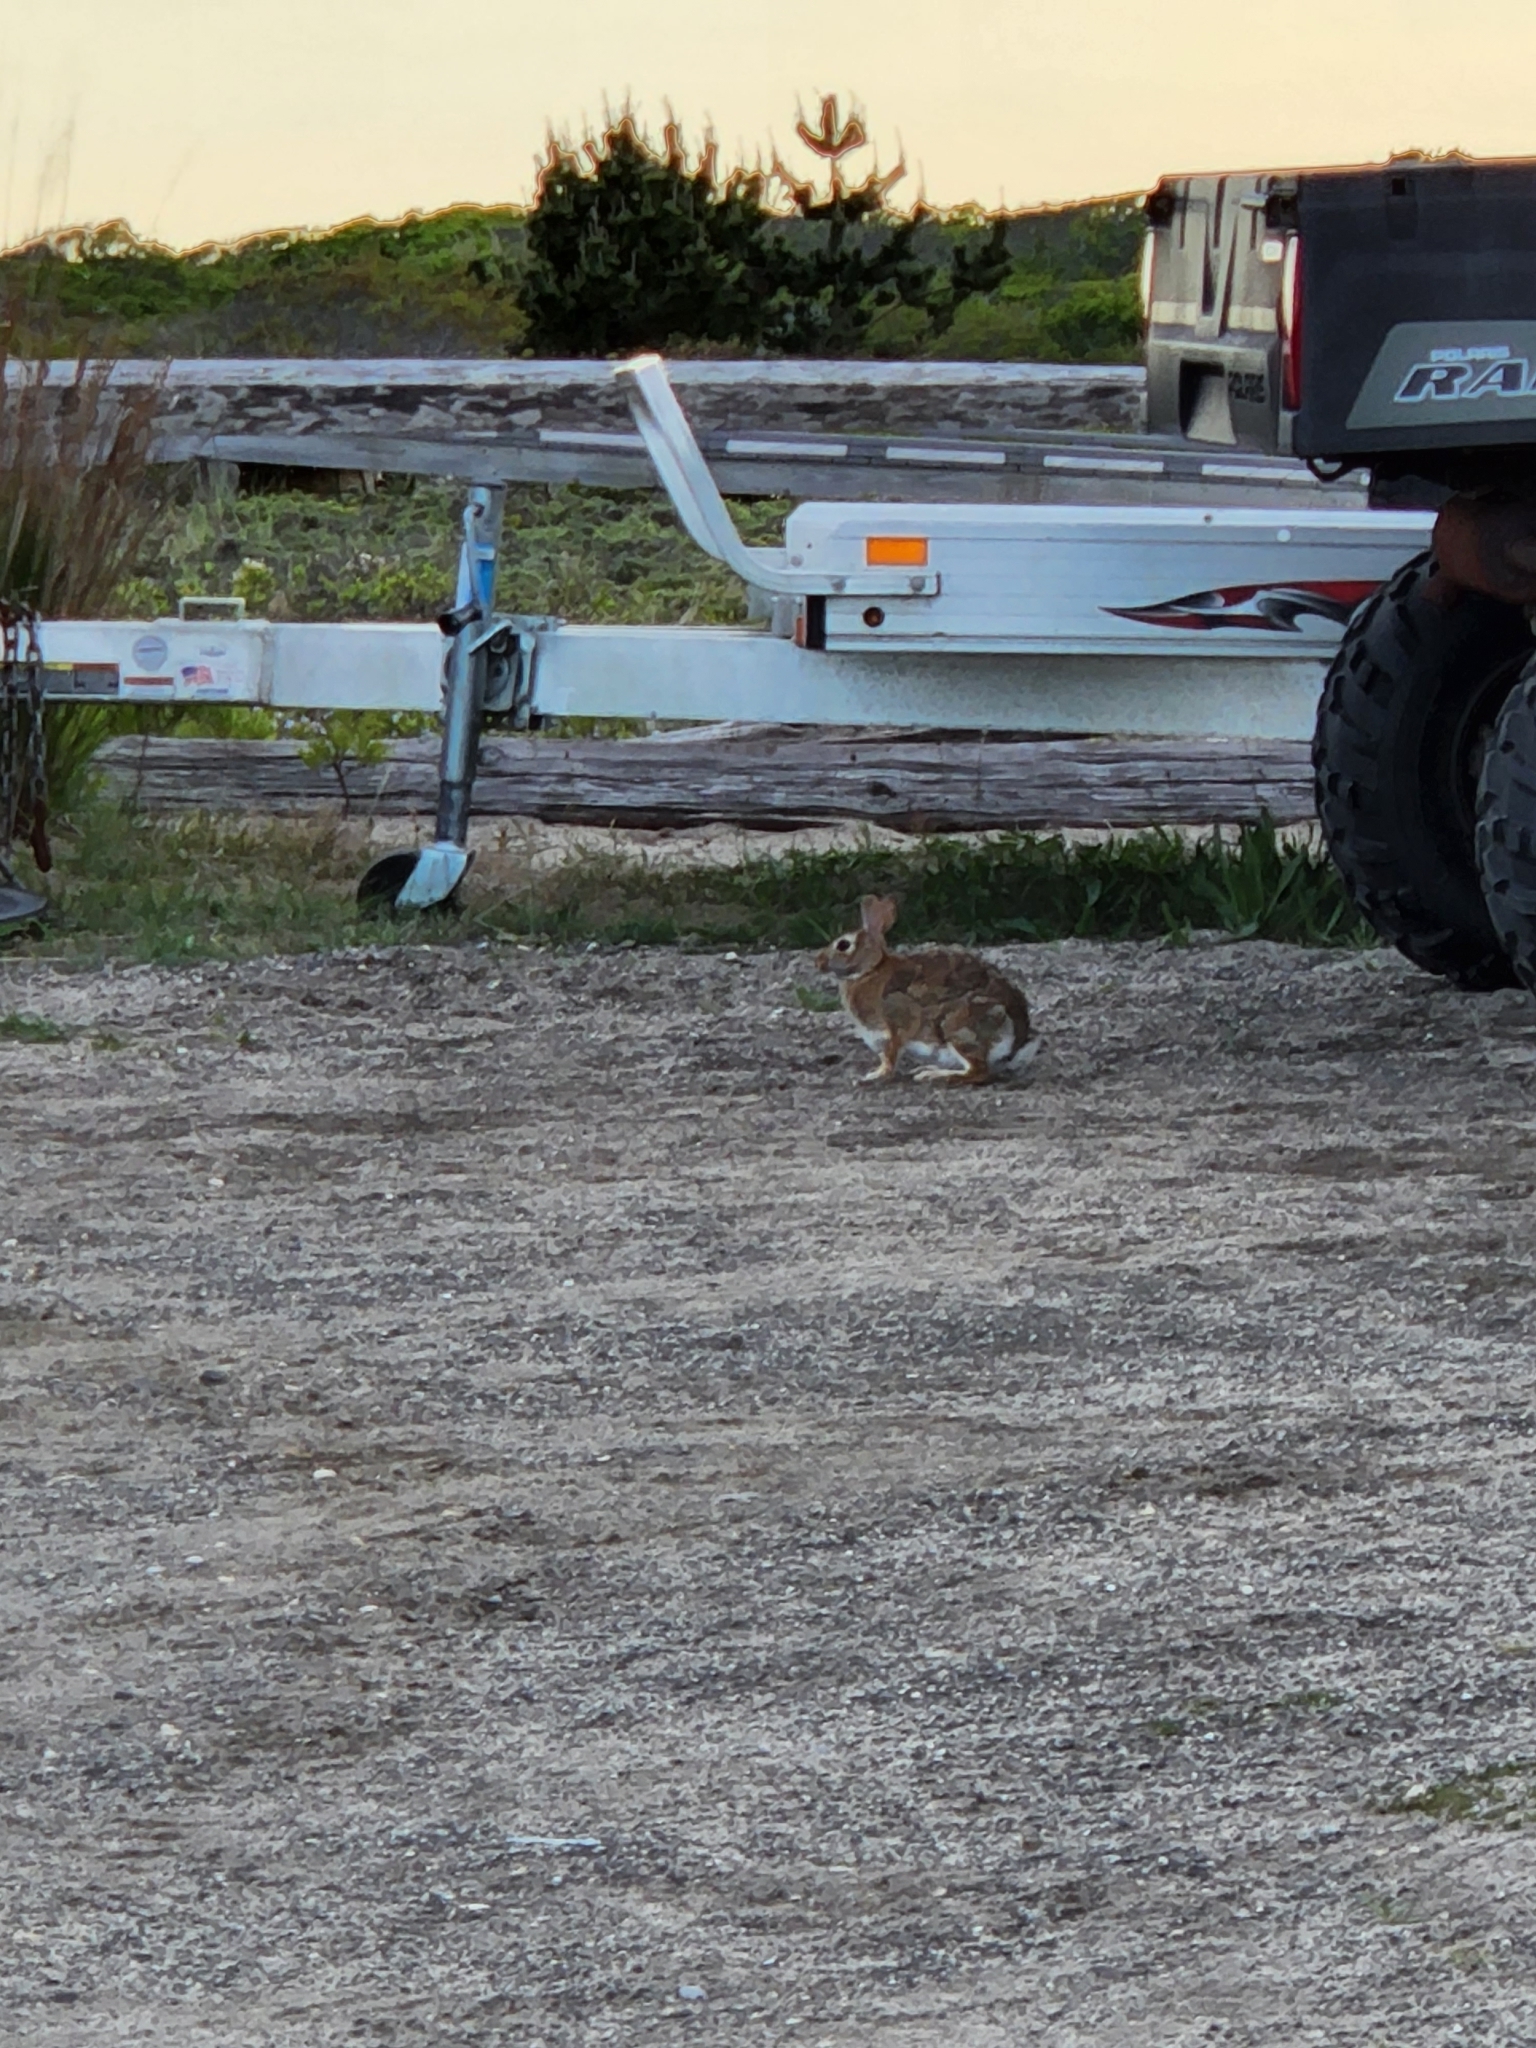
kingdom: Animalia
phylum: Chordata
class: Mammalia
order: Lagomorpha
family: Leporidae
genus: Sylvilagus
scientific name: Sylvilagus floridanus
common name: Eastern cottontail
